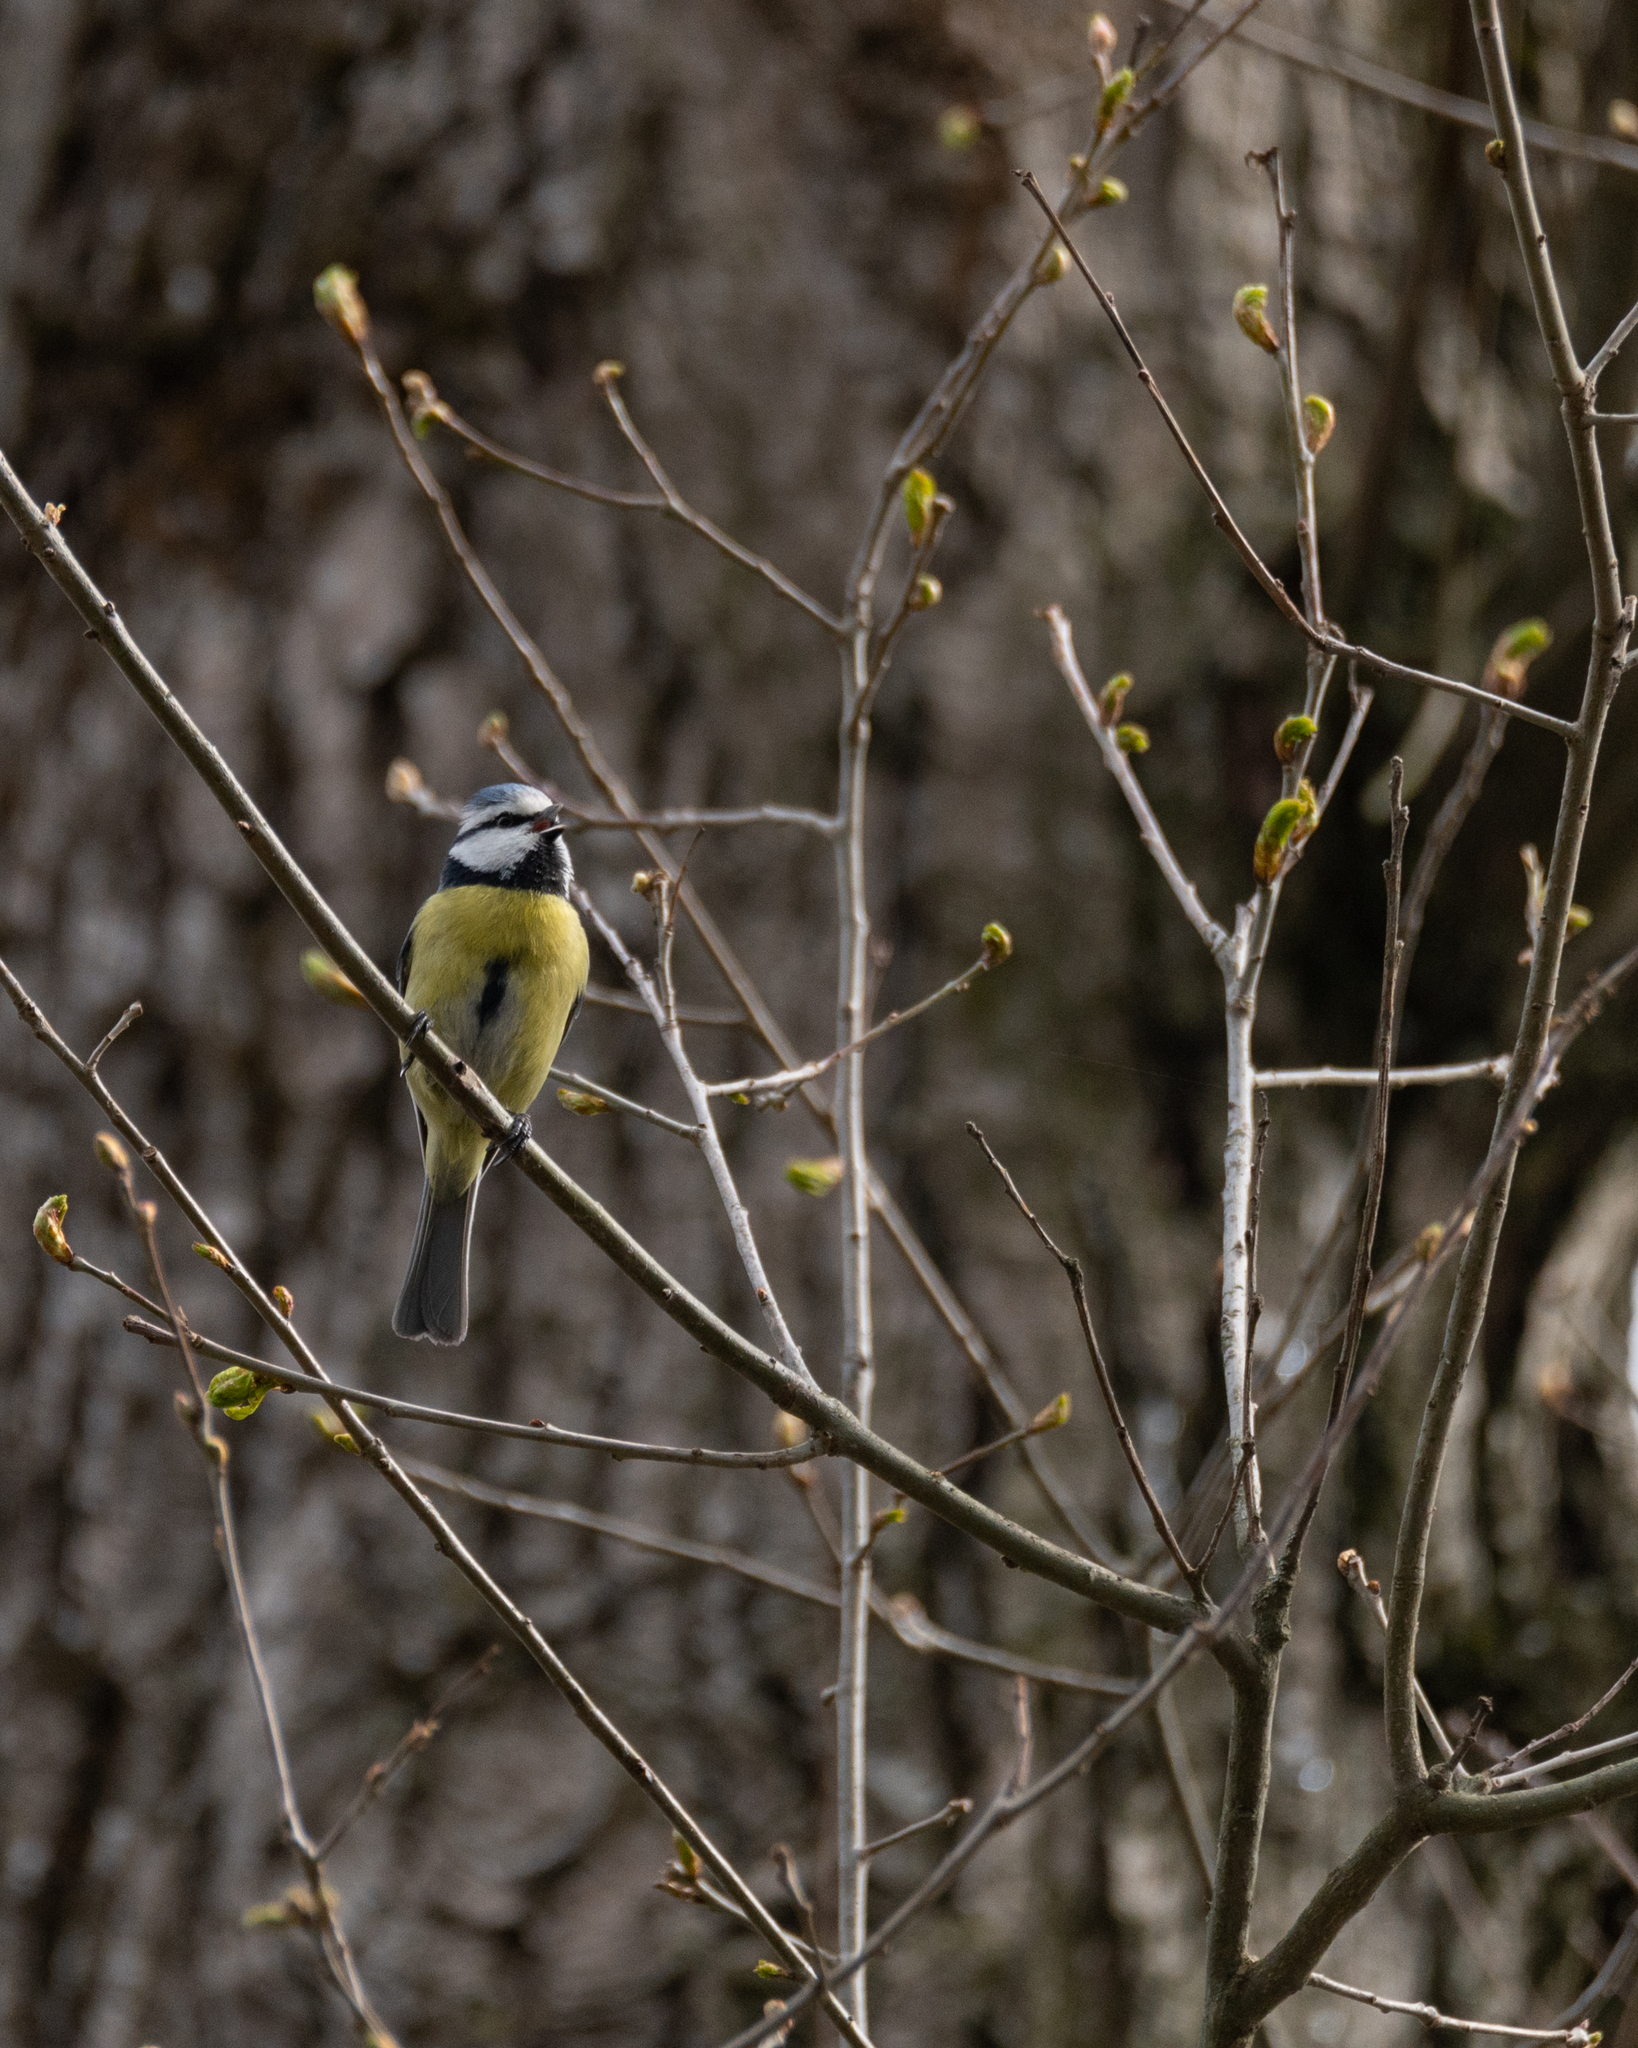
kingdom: Animalia
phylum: Chordata
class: Aves
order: Passeriformes
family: Paridae
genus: Cyanistes
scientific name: Cyanistes caeruleus
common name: Eurasian blue tit
